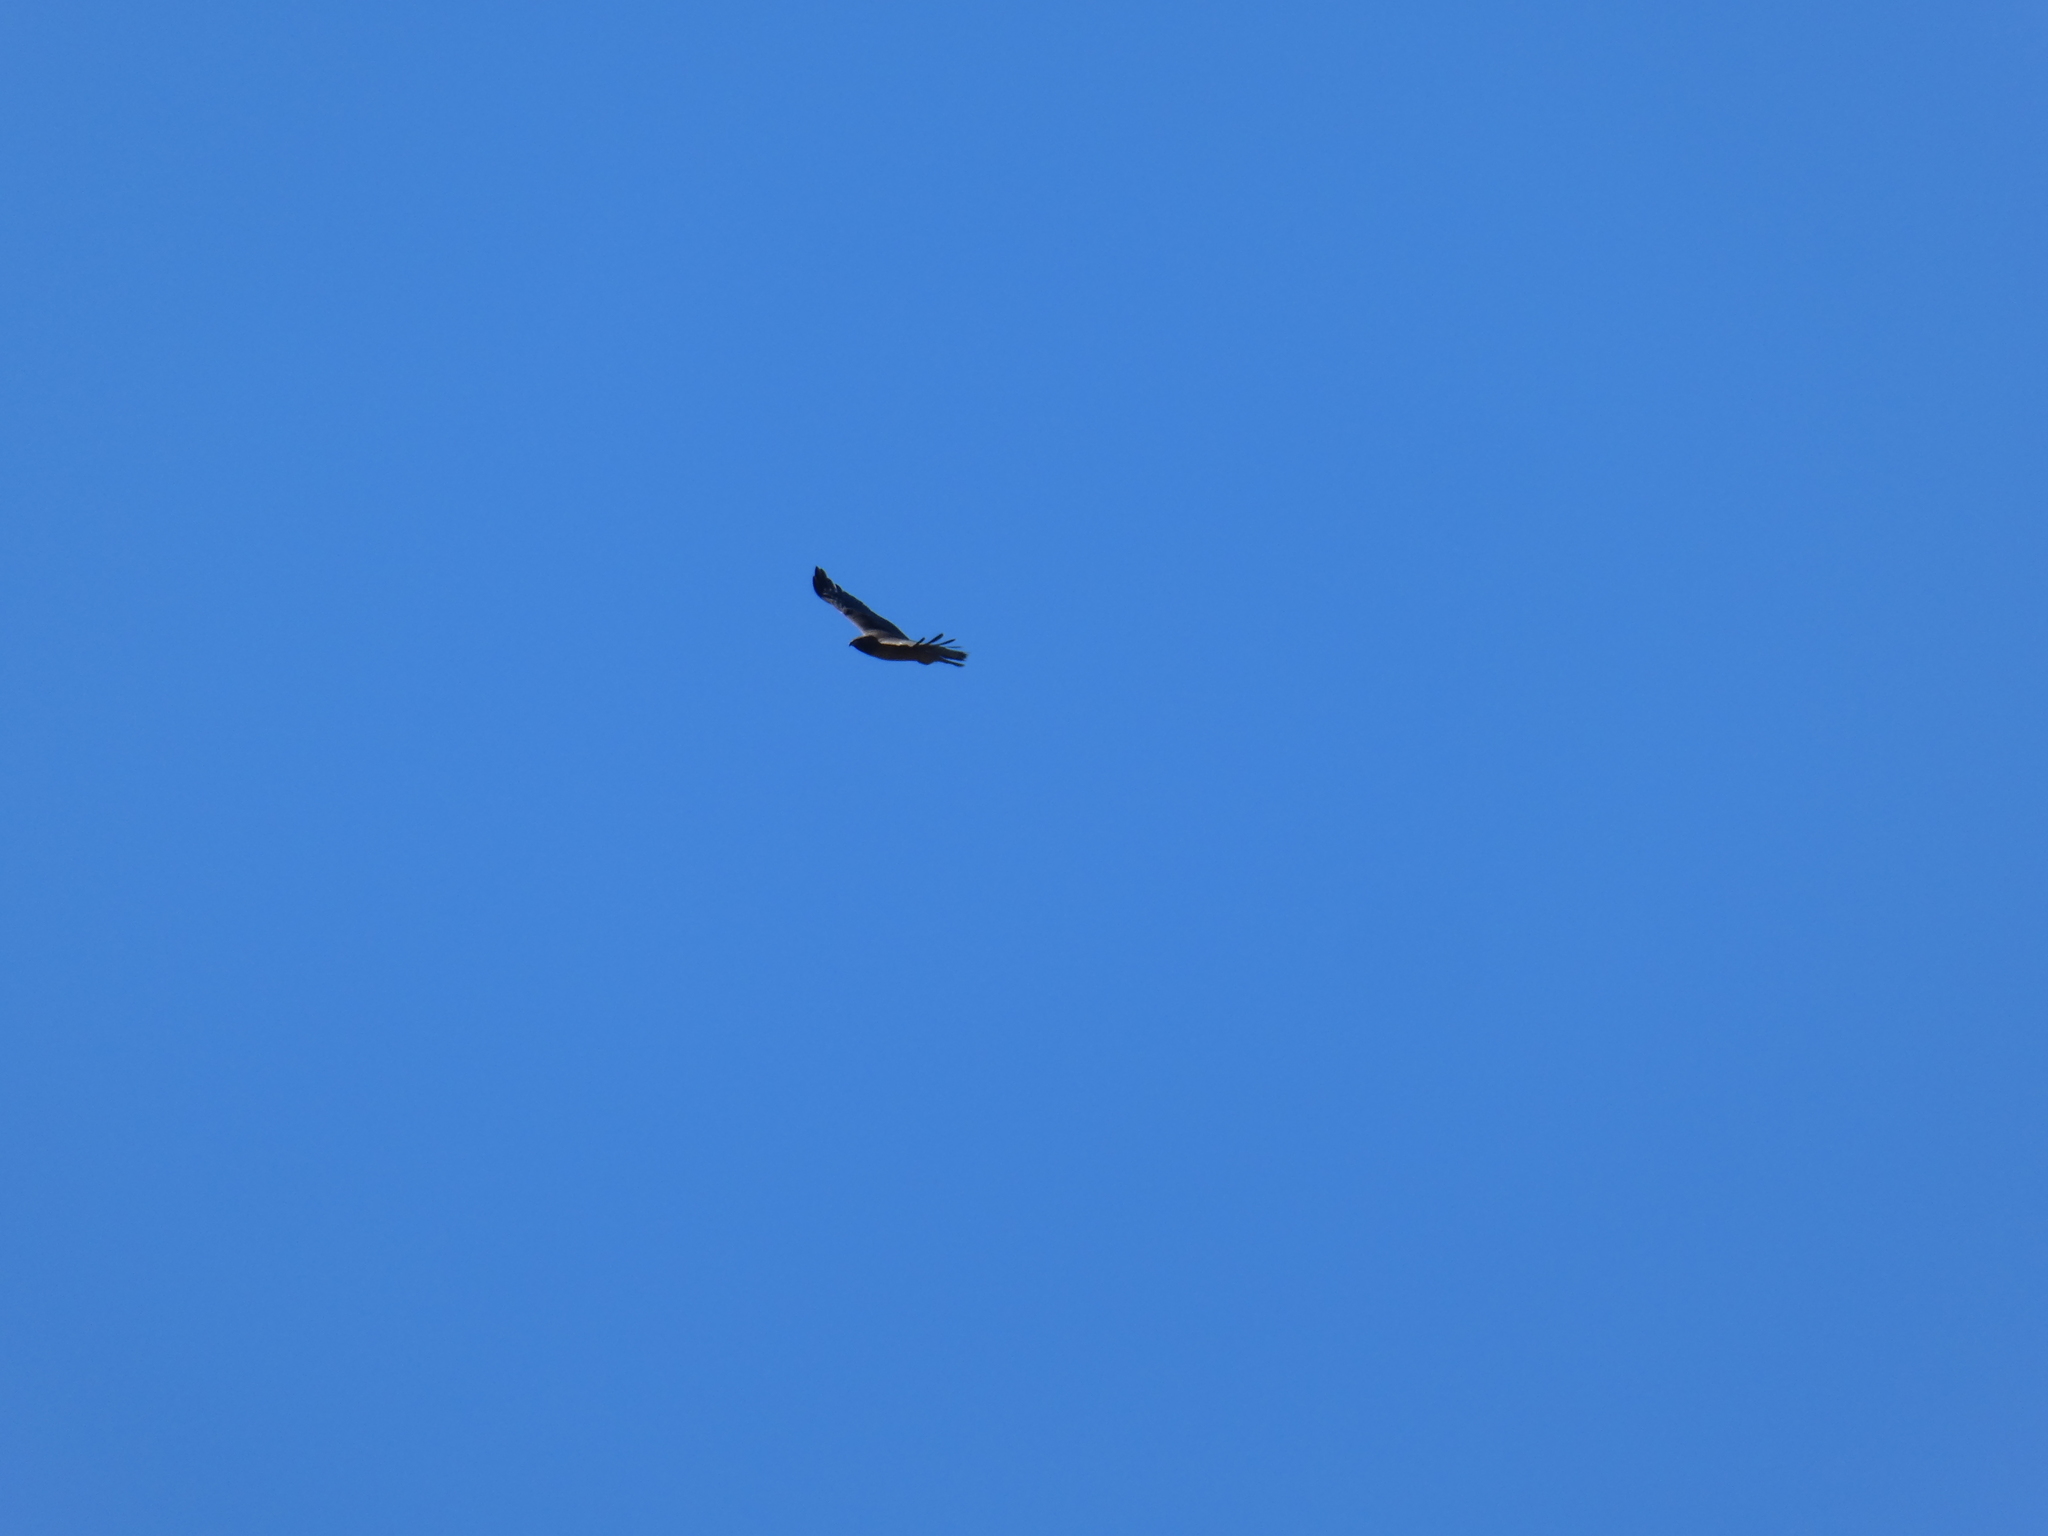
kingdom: Animalia
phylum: Chordata
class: Aves
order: Accipitriformes
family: Accipitridae
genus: Buteo
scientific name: Buteo jamaicensis
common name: Red-tailed hawk
